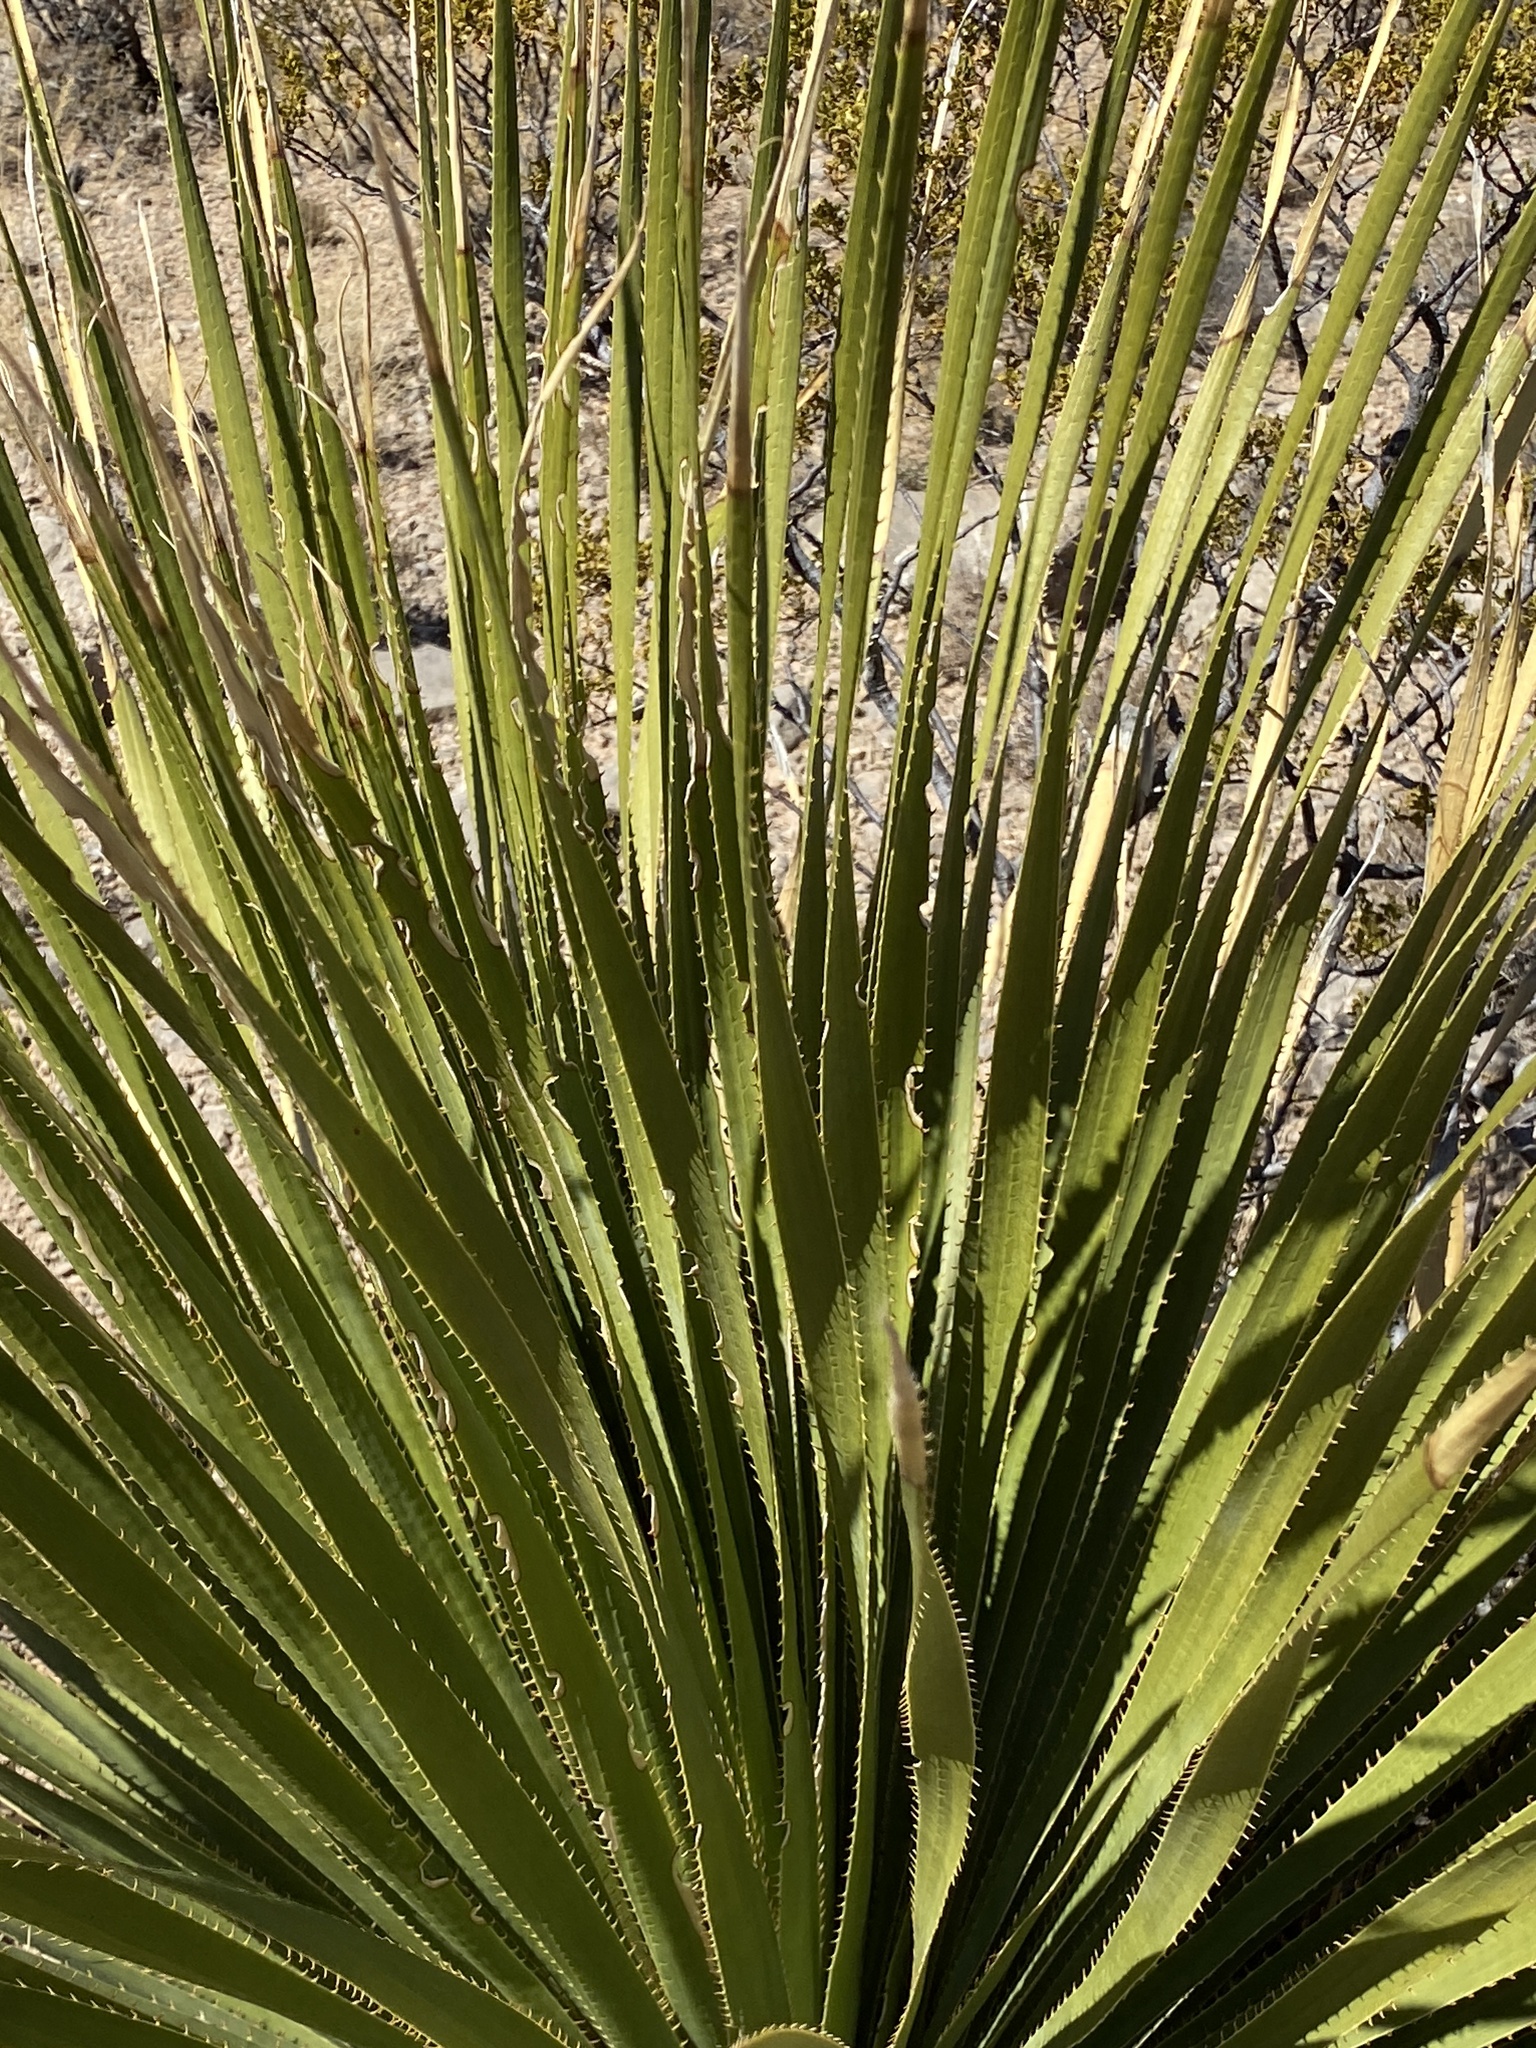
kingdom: Plantae
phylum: Tracheophyta
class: Liliopsida
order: Asparagales
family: Asparagaceae
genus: Dasylirion
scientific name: Dasylirion wheeleri
